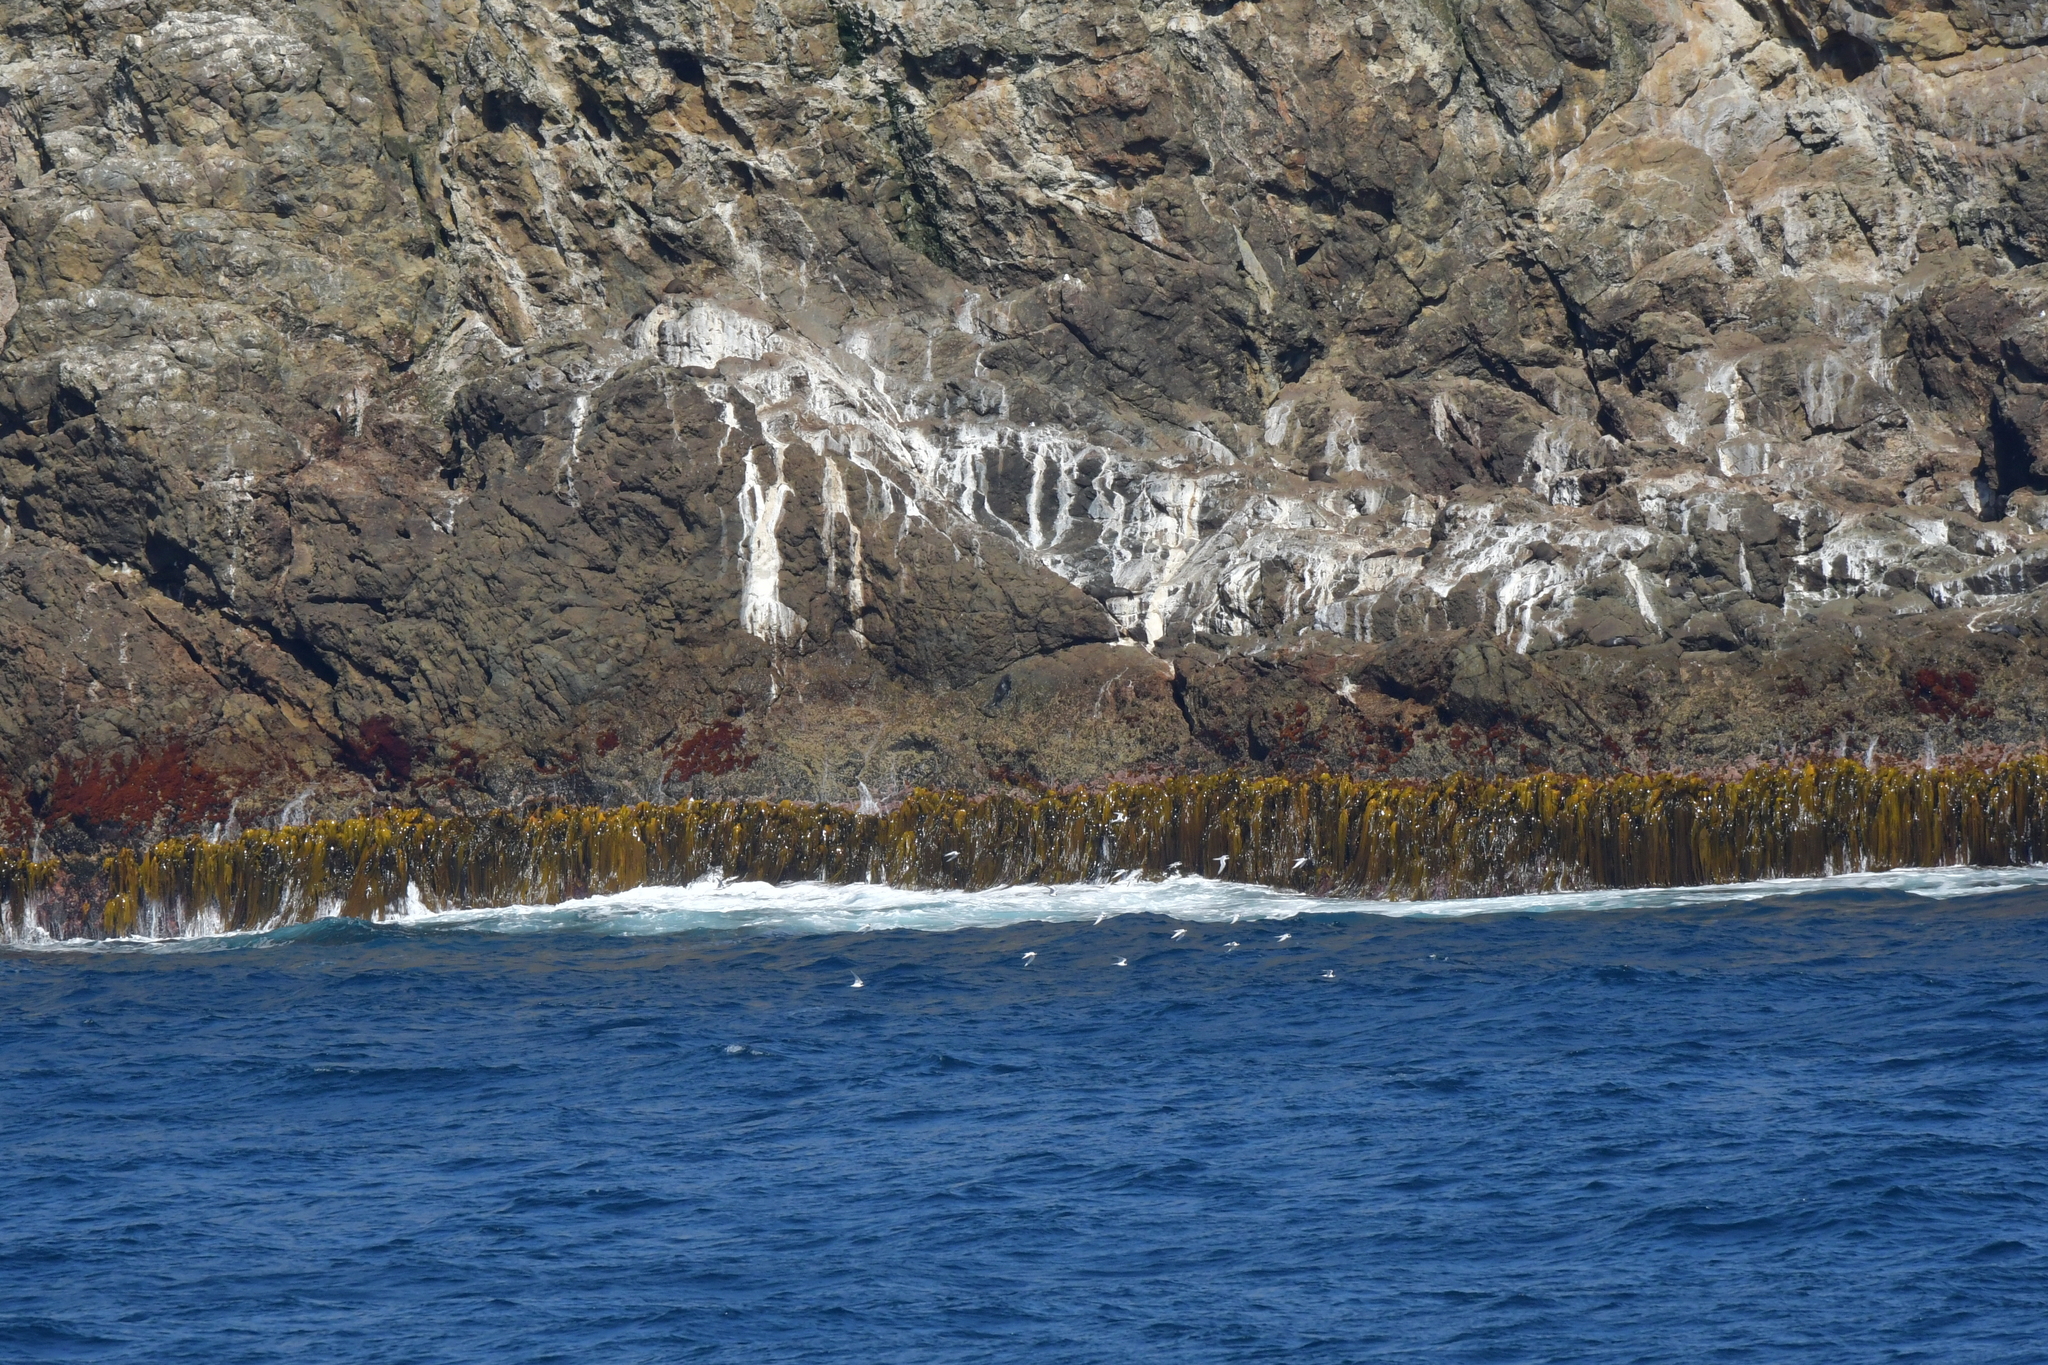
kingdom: Animalia
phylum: Chordata
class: Aves
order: Charadriiformes
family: Laridae
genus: Sterna
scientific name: Sterna striata
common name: White-fronted tern
